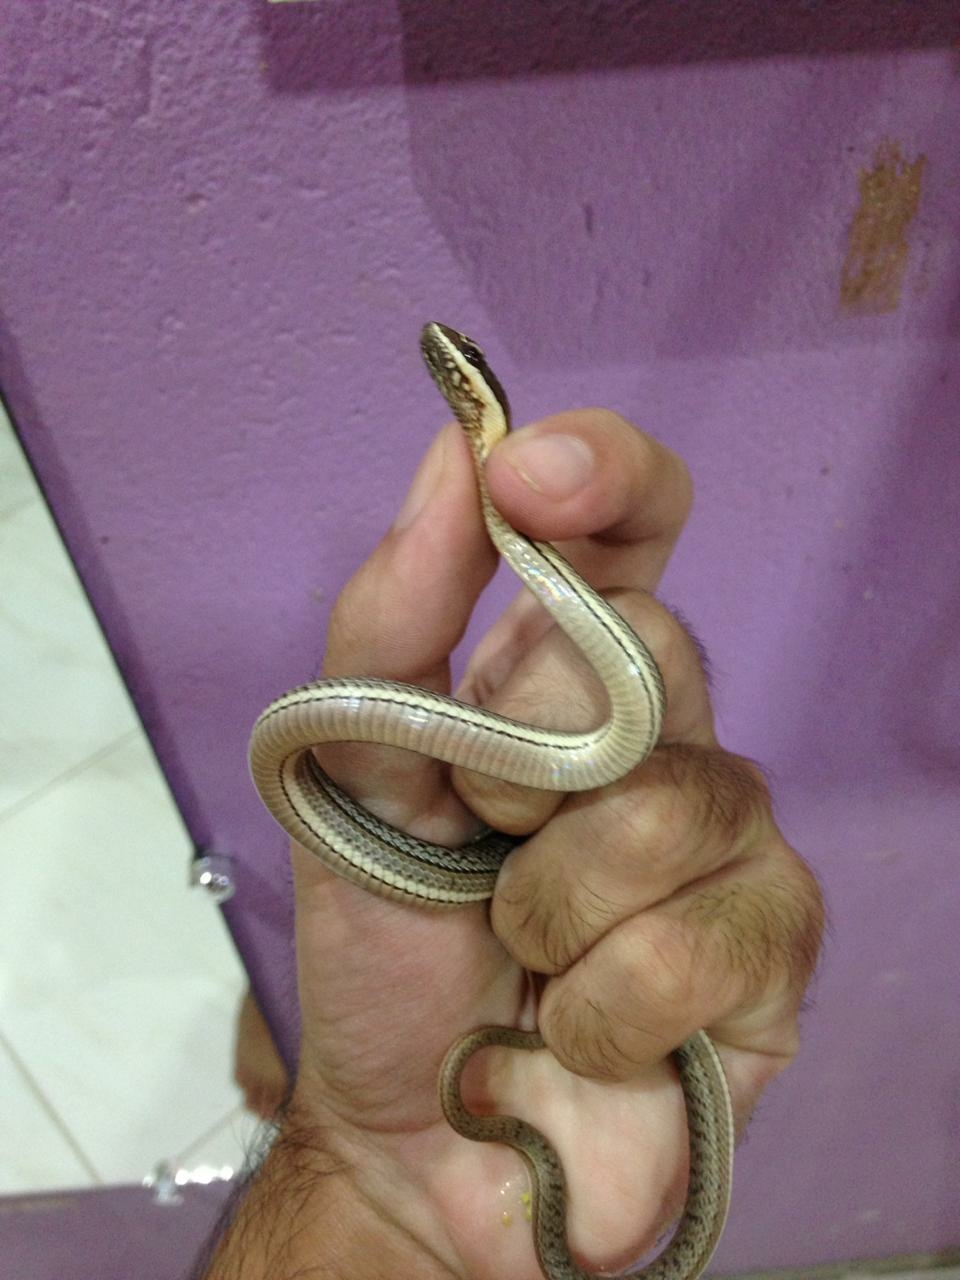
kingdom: Animalia
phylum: Chordata
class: Squamata
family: Colubridae
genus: Philodryas
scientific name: Philodryas nattereri
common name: Paraguay green racer
